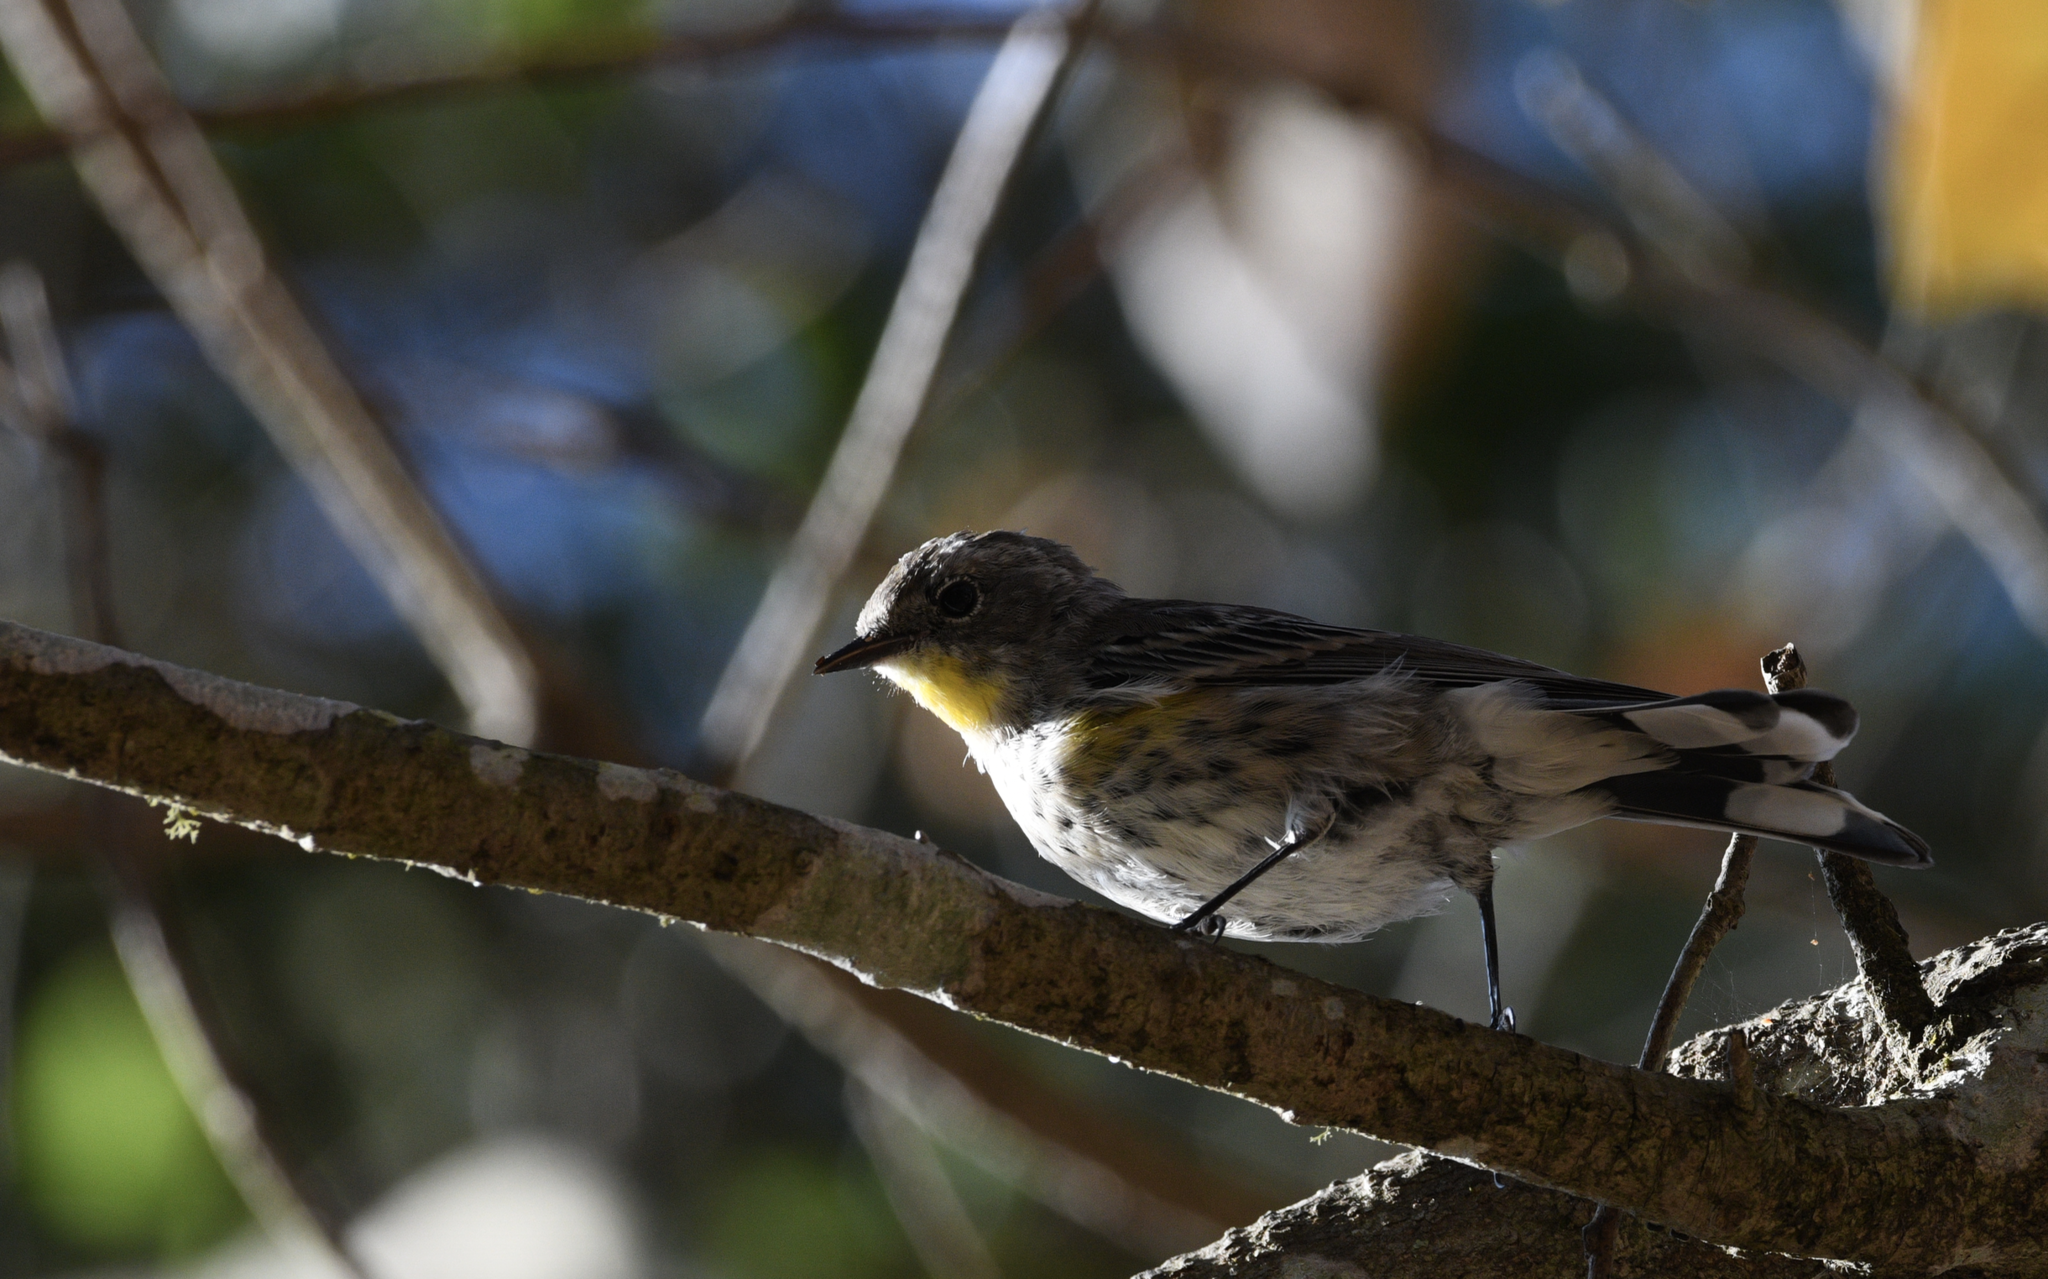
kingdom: Animalia
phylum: Chordata
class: Aves
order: Passeriformes
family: Parulidae
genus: Setophaga
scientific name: Setophaga coronata
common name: Myrtle warbler
